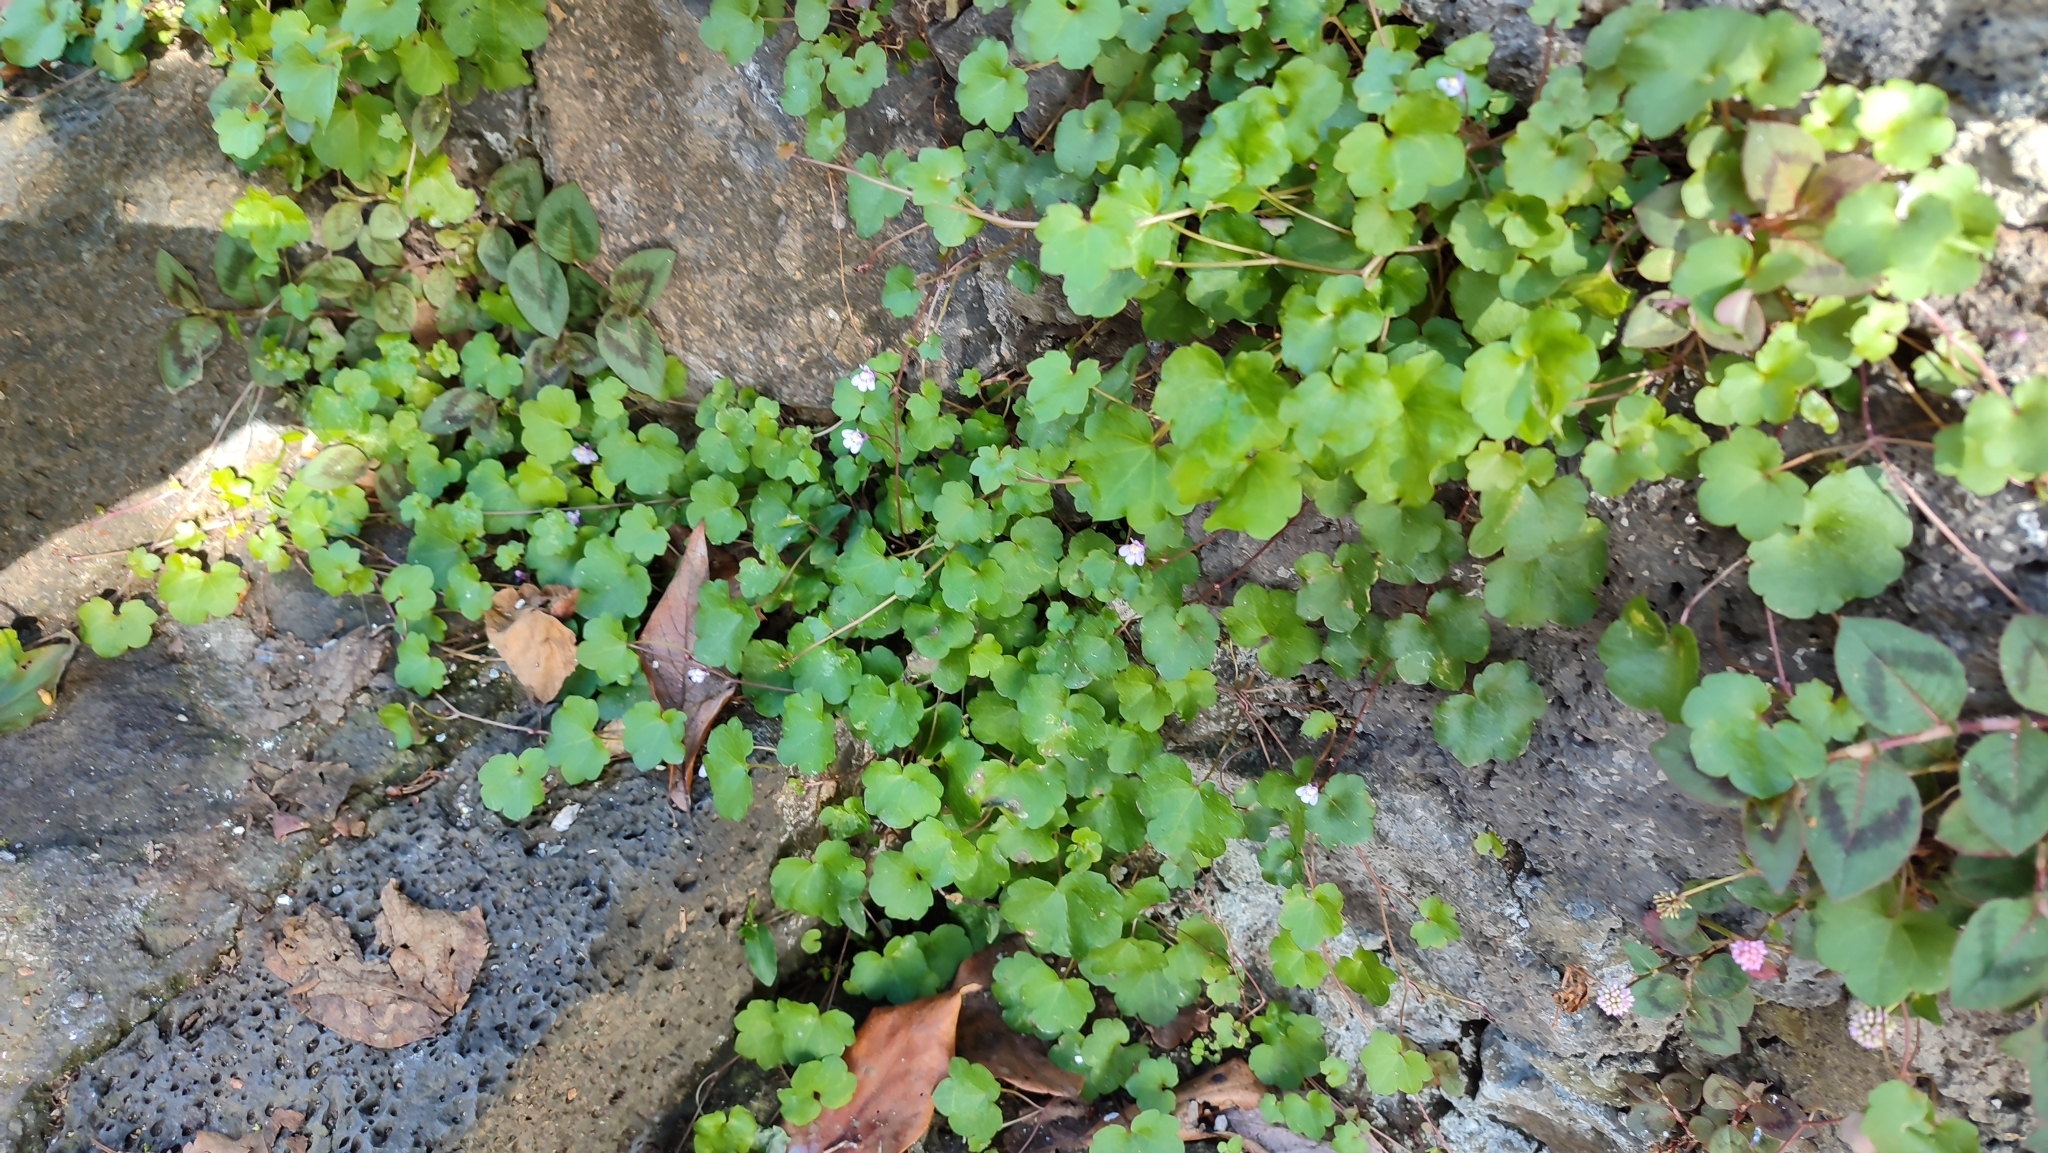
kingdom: Plantae
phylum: Tracheophyta
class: Magnoliopsida
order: Lamiales
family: Plantaginaceae
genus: Cymbalaria
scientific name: Cymbalaria muralis
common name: Ivy-leaved toadflax
